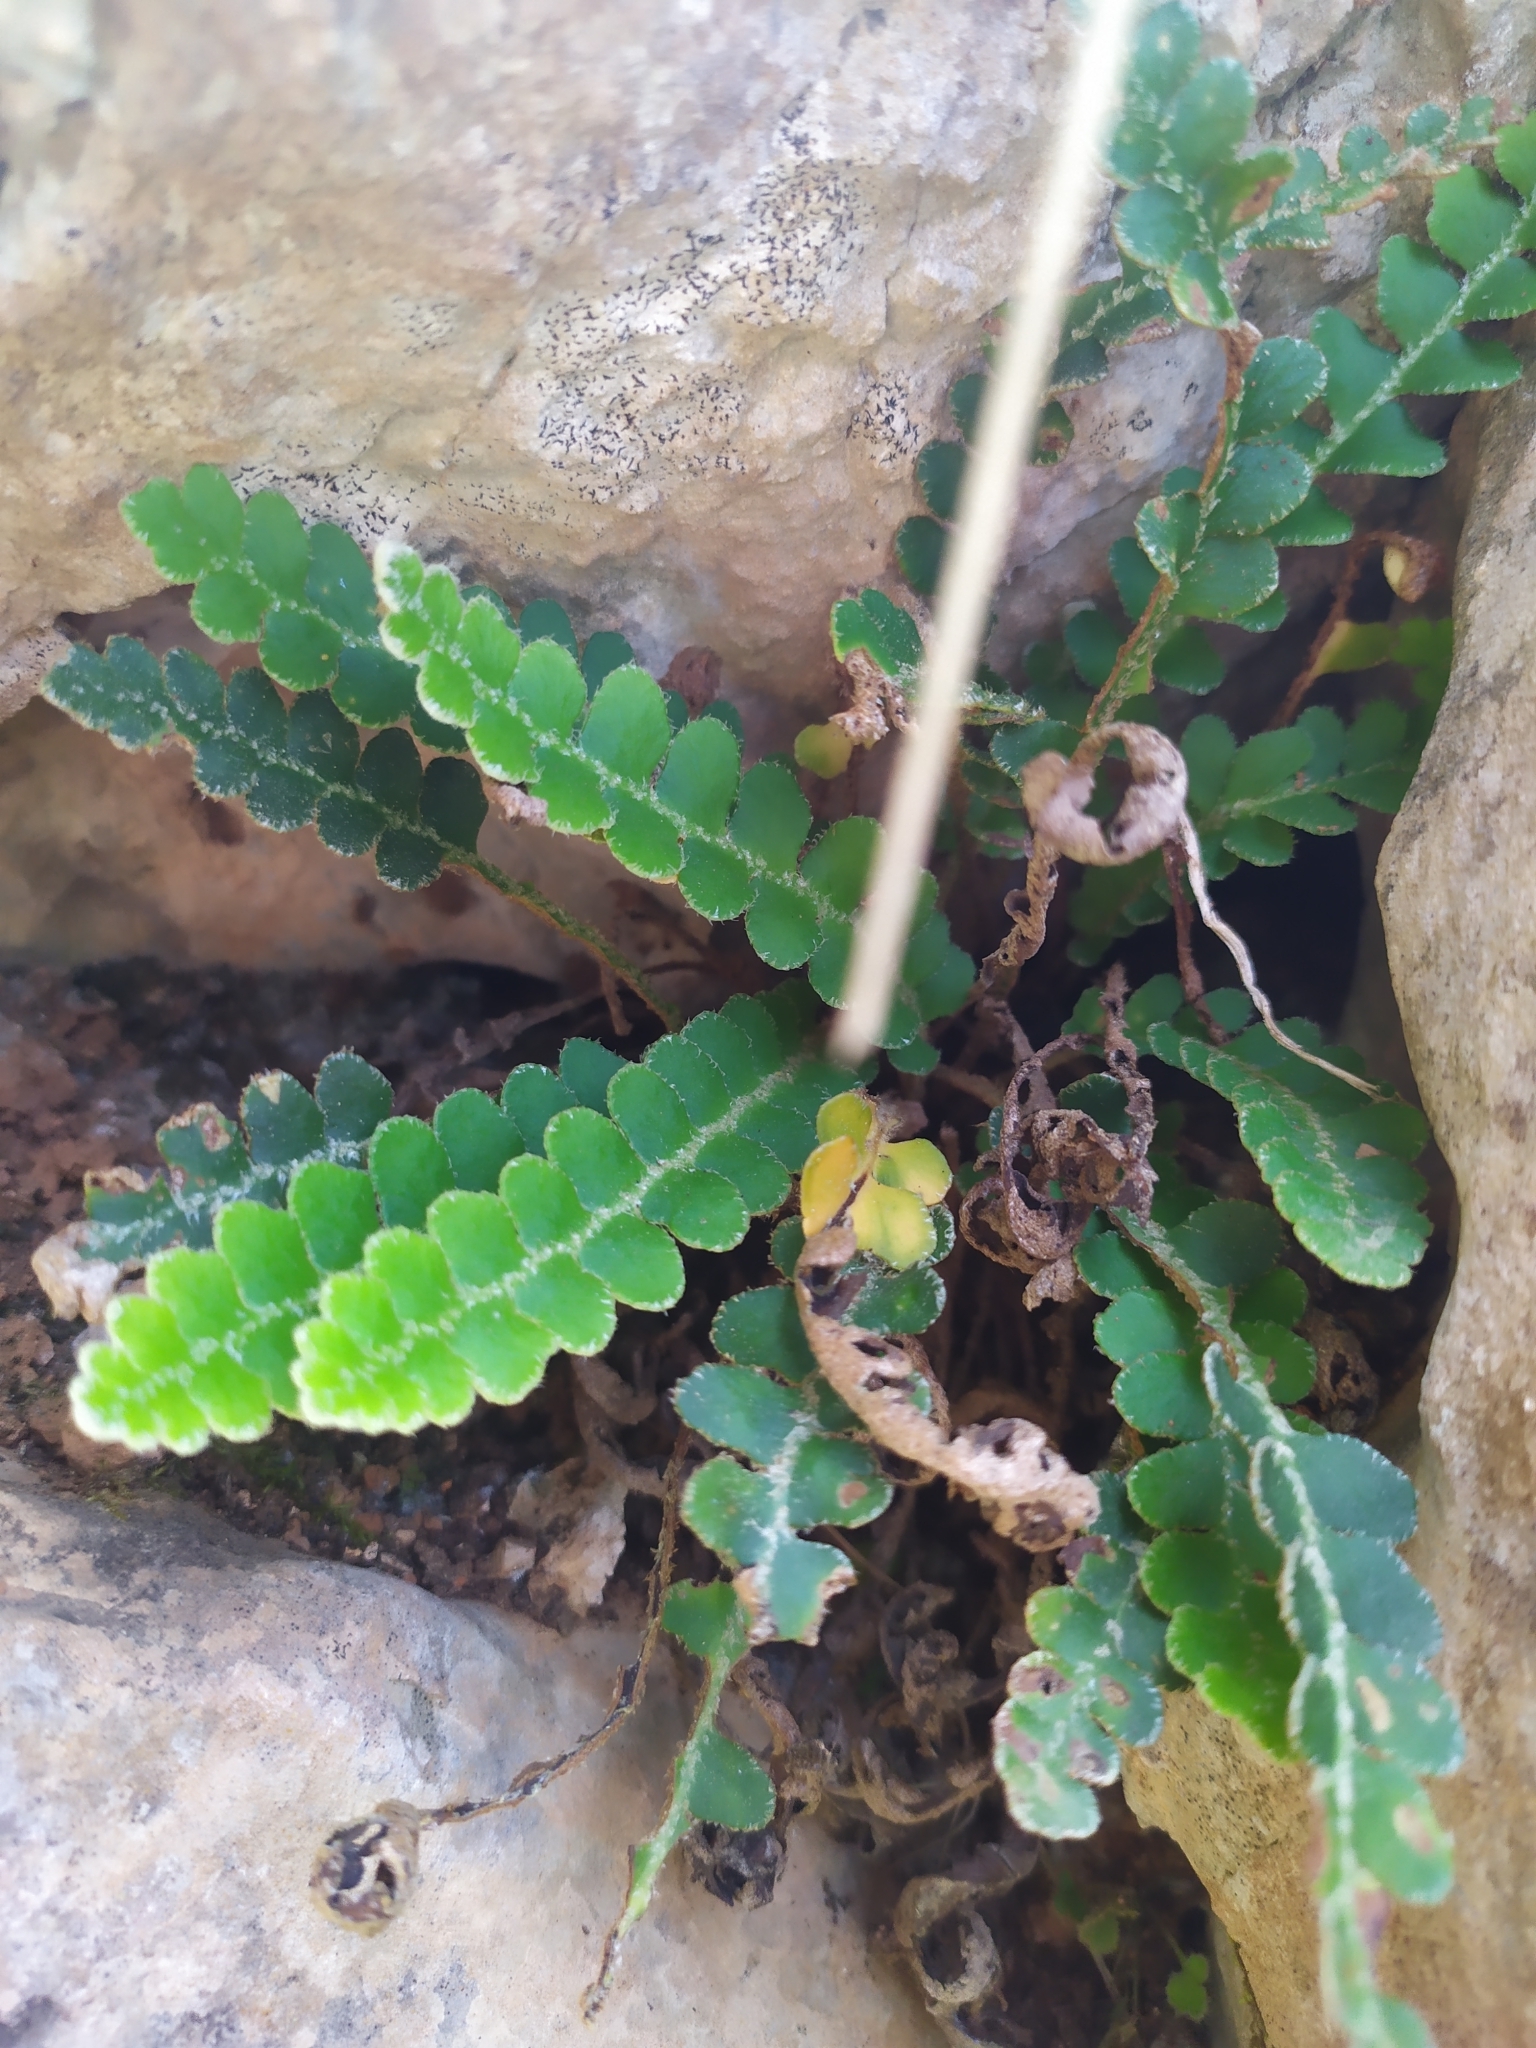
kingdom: Plantae
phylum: Tracheophyta
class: Polypodiopsida
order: Polypodiales
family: Aspleniaceae
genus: Asplenium
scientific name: Asplenium ceterach
